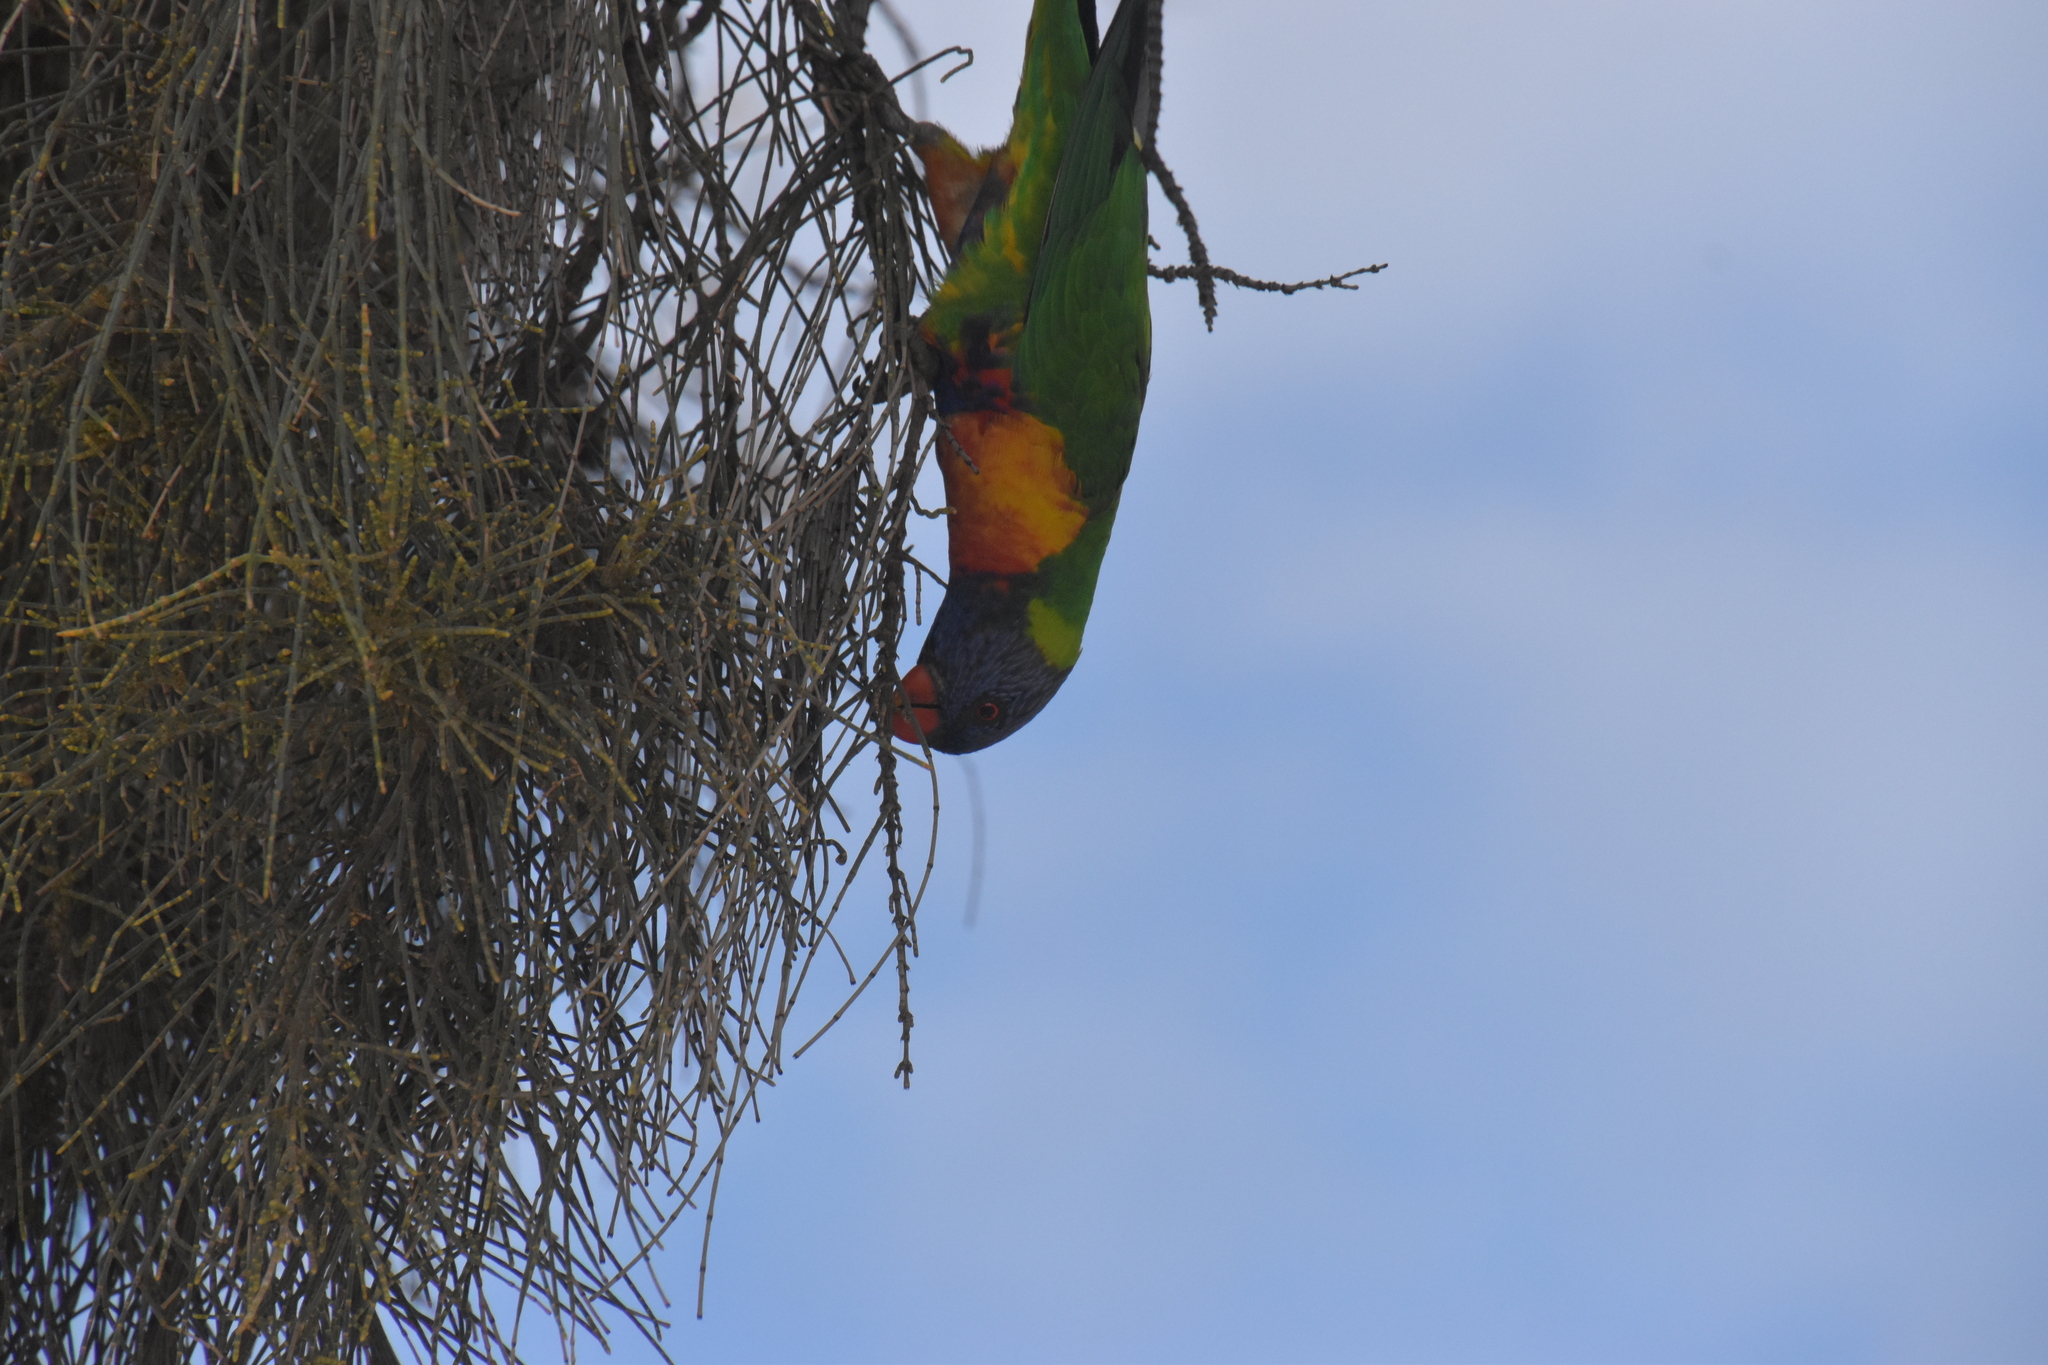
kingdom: Animalia
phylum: Chordata
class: Aves
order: Psittaciformes
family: Psittacidae
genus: Trichoglossus
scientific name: Trichoglossus haematodus
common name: Coconut lorikeet
